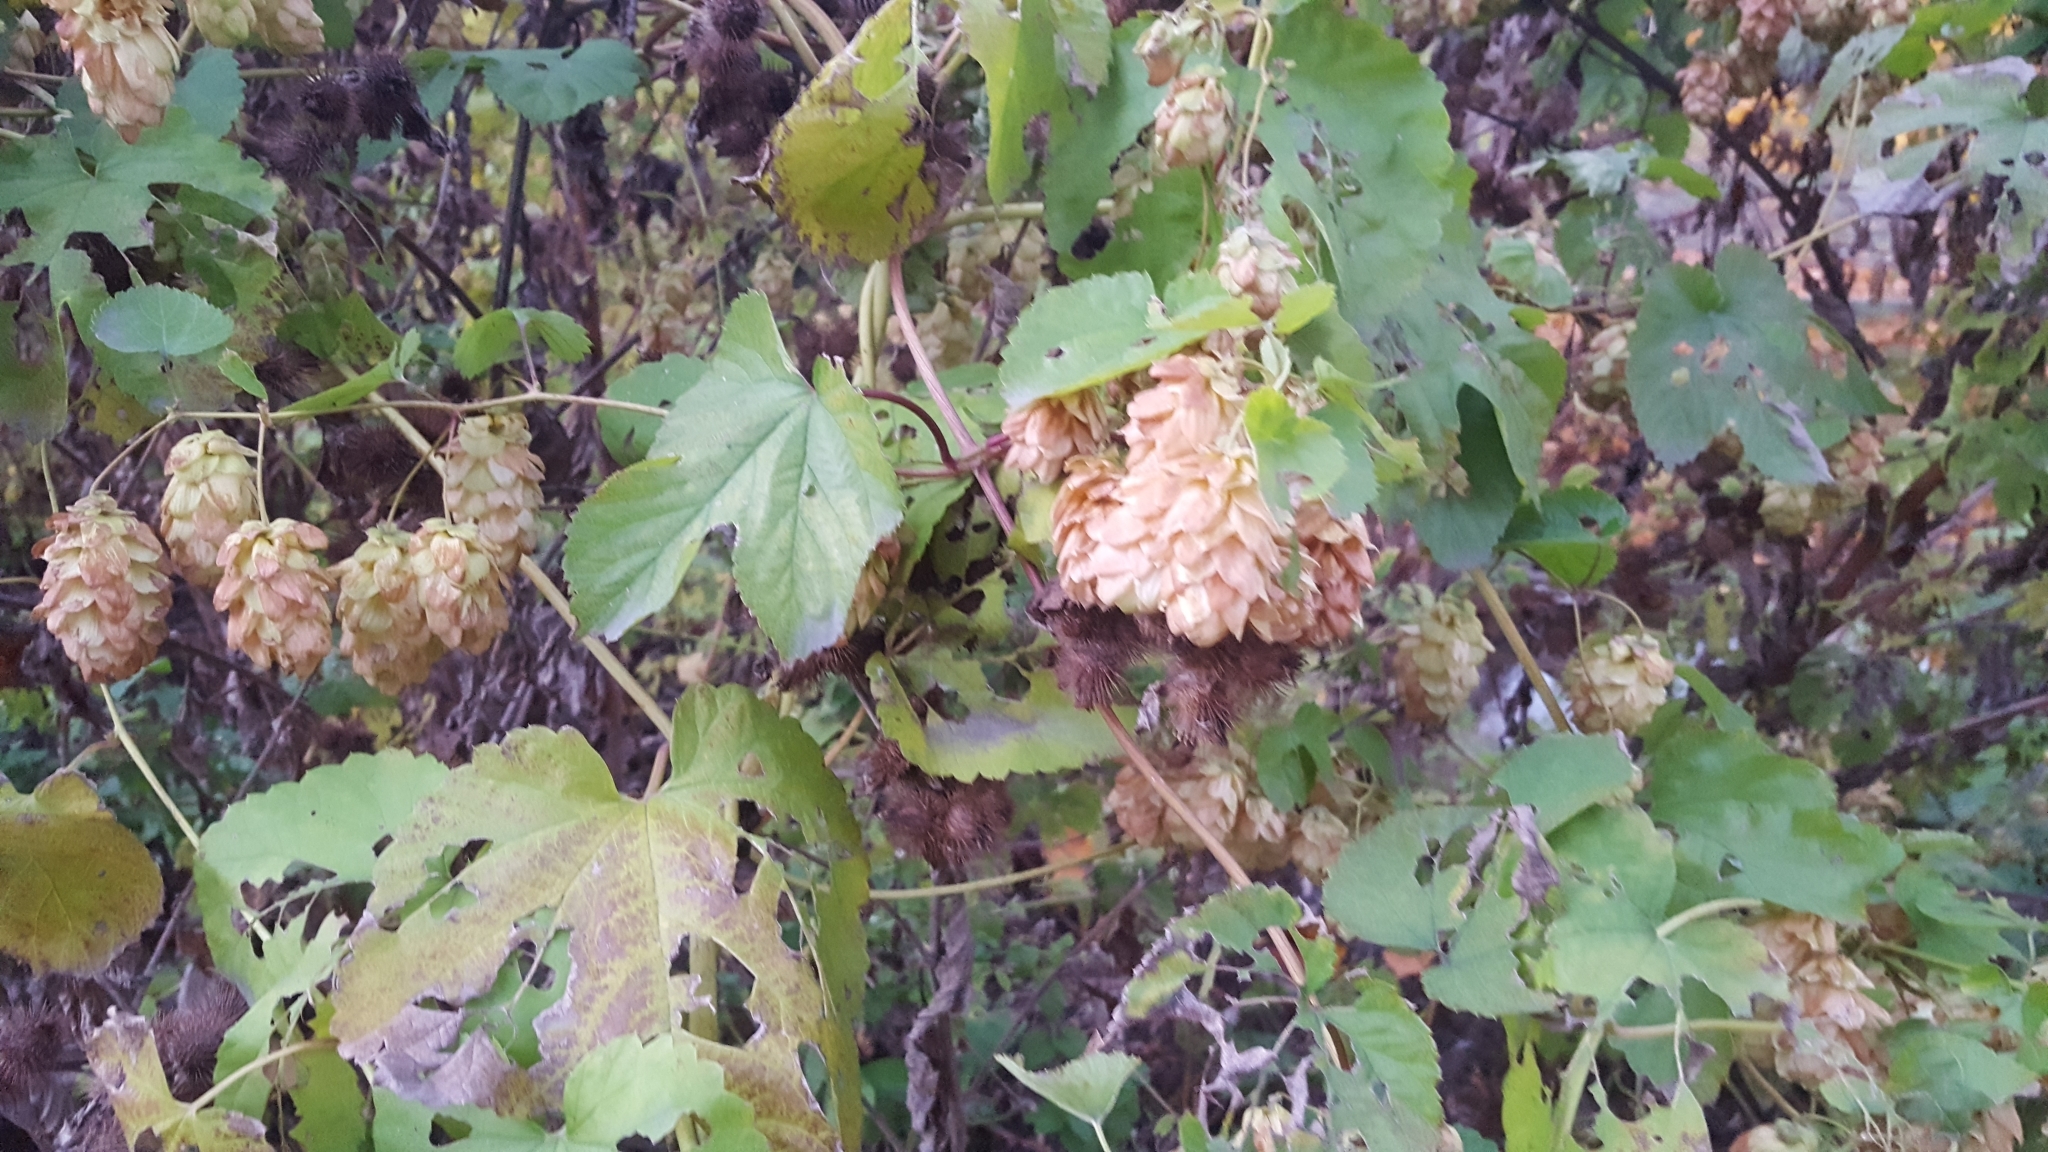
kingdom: Plantae
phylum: Tracheophyta
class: Magnoliopsida
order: Rosales
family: Cannabaceae
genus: Humulus
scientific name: Humulus lupulus
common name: Hop
